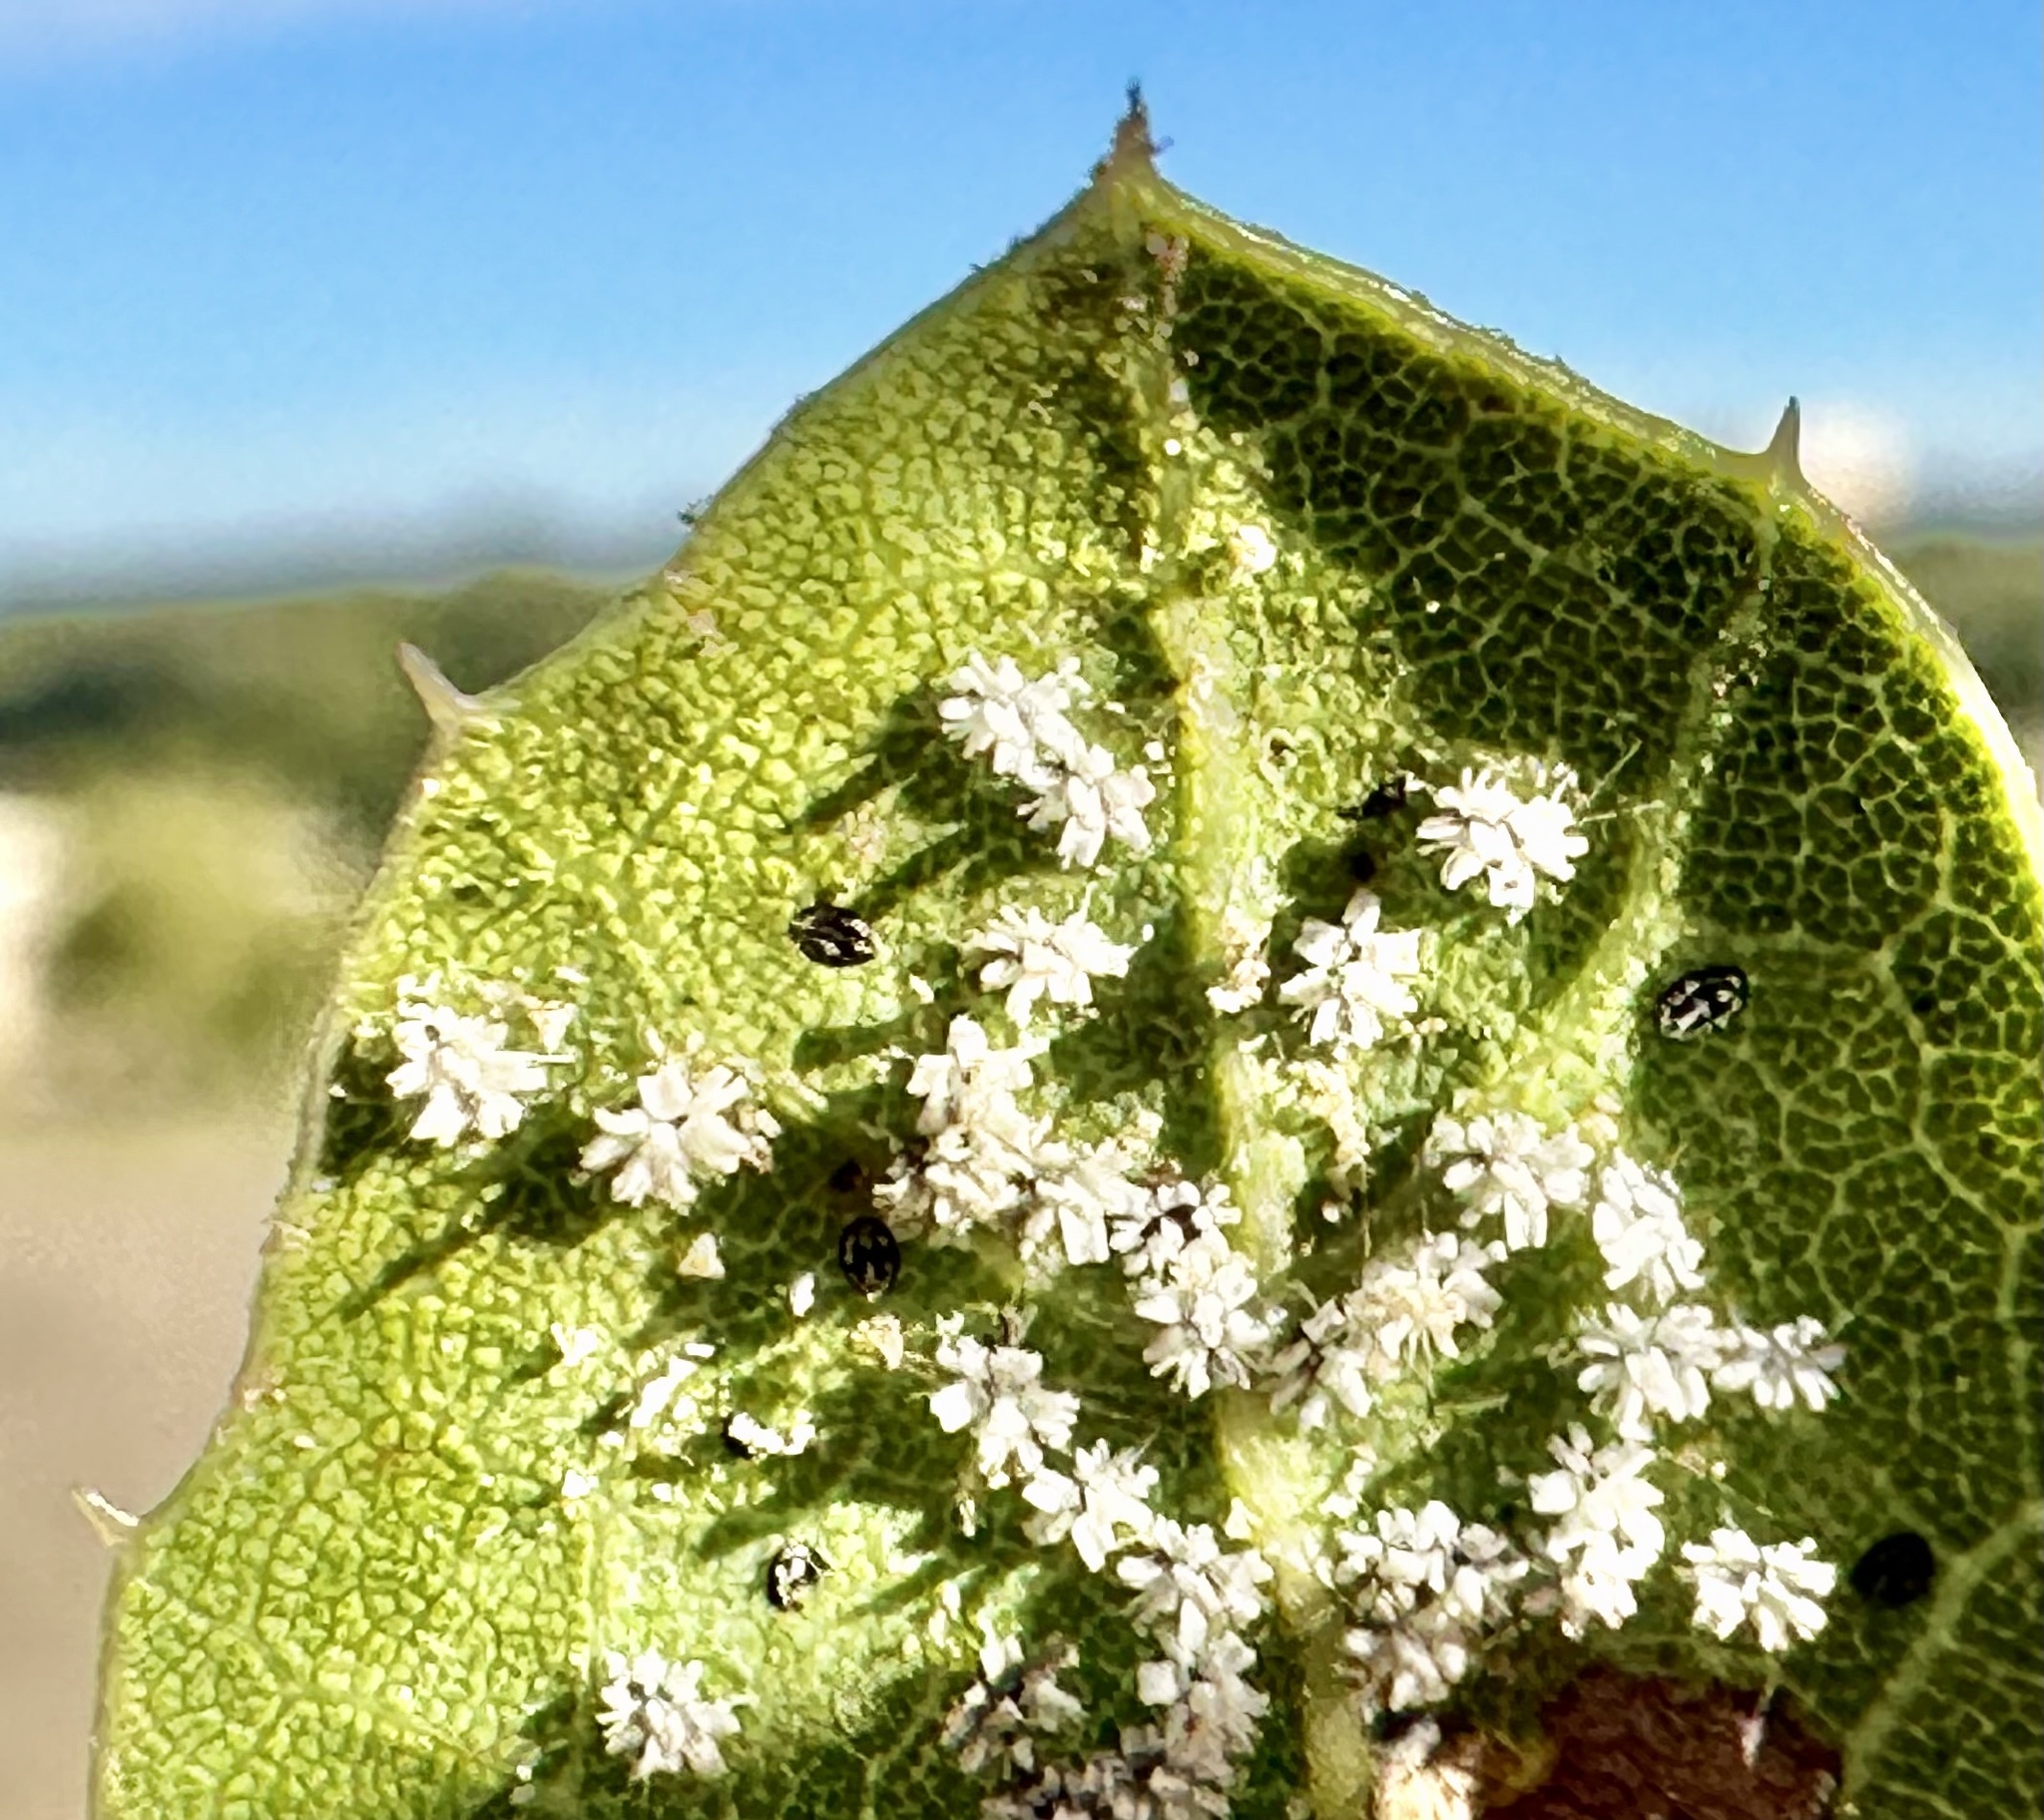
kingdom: Animalia
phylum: Arthropoda
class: Insecta
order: Hemiptera
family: Aleyrodidae
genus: Aleuroplatus
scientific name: Aleuroplatus coronata
